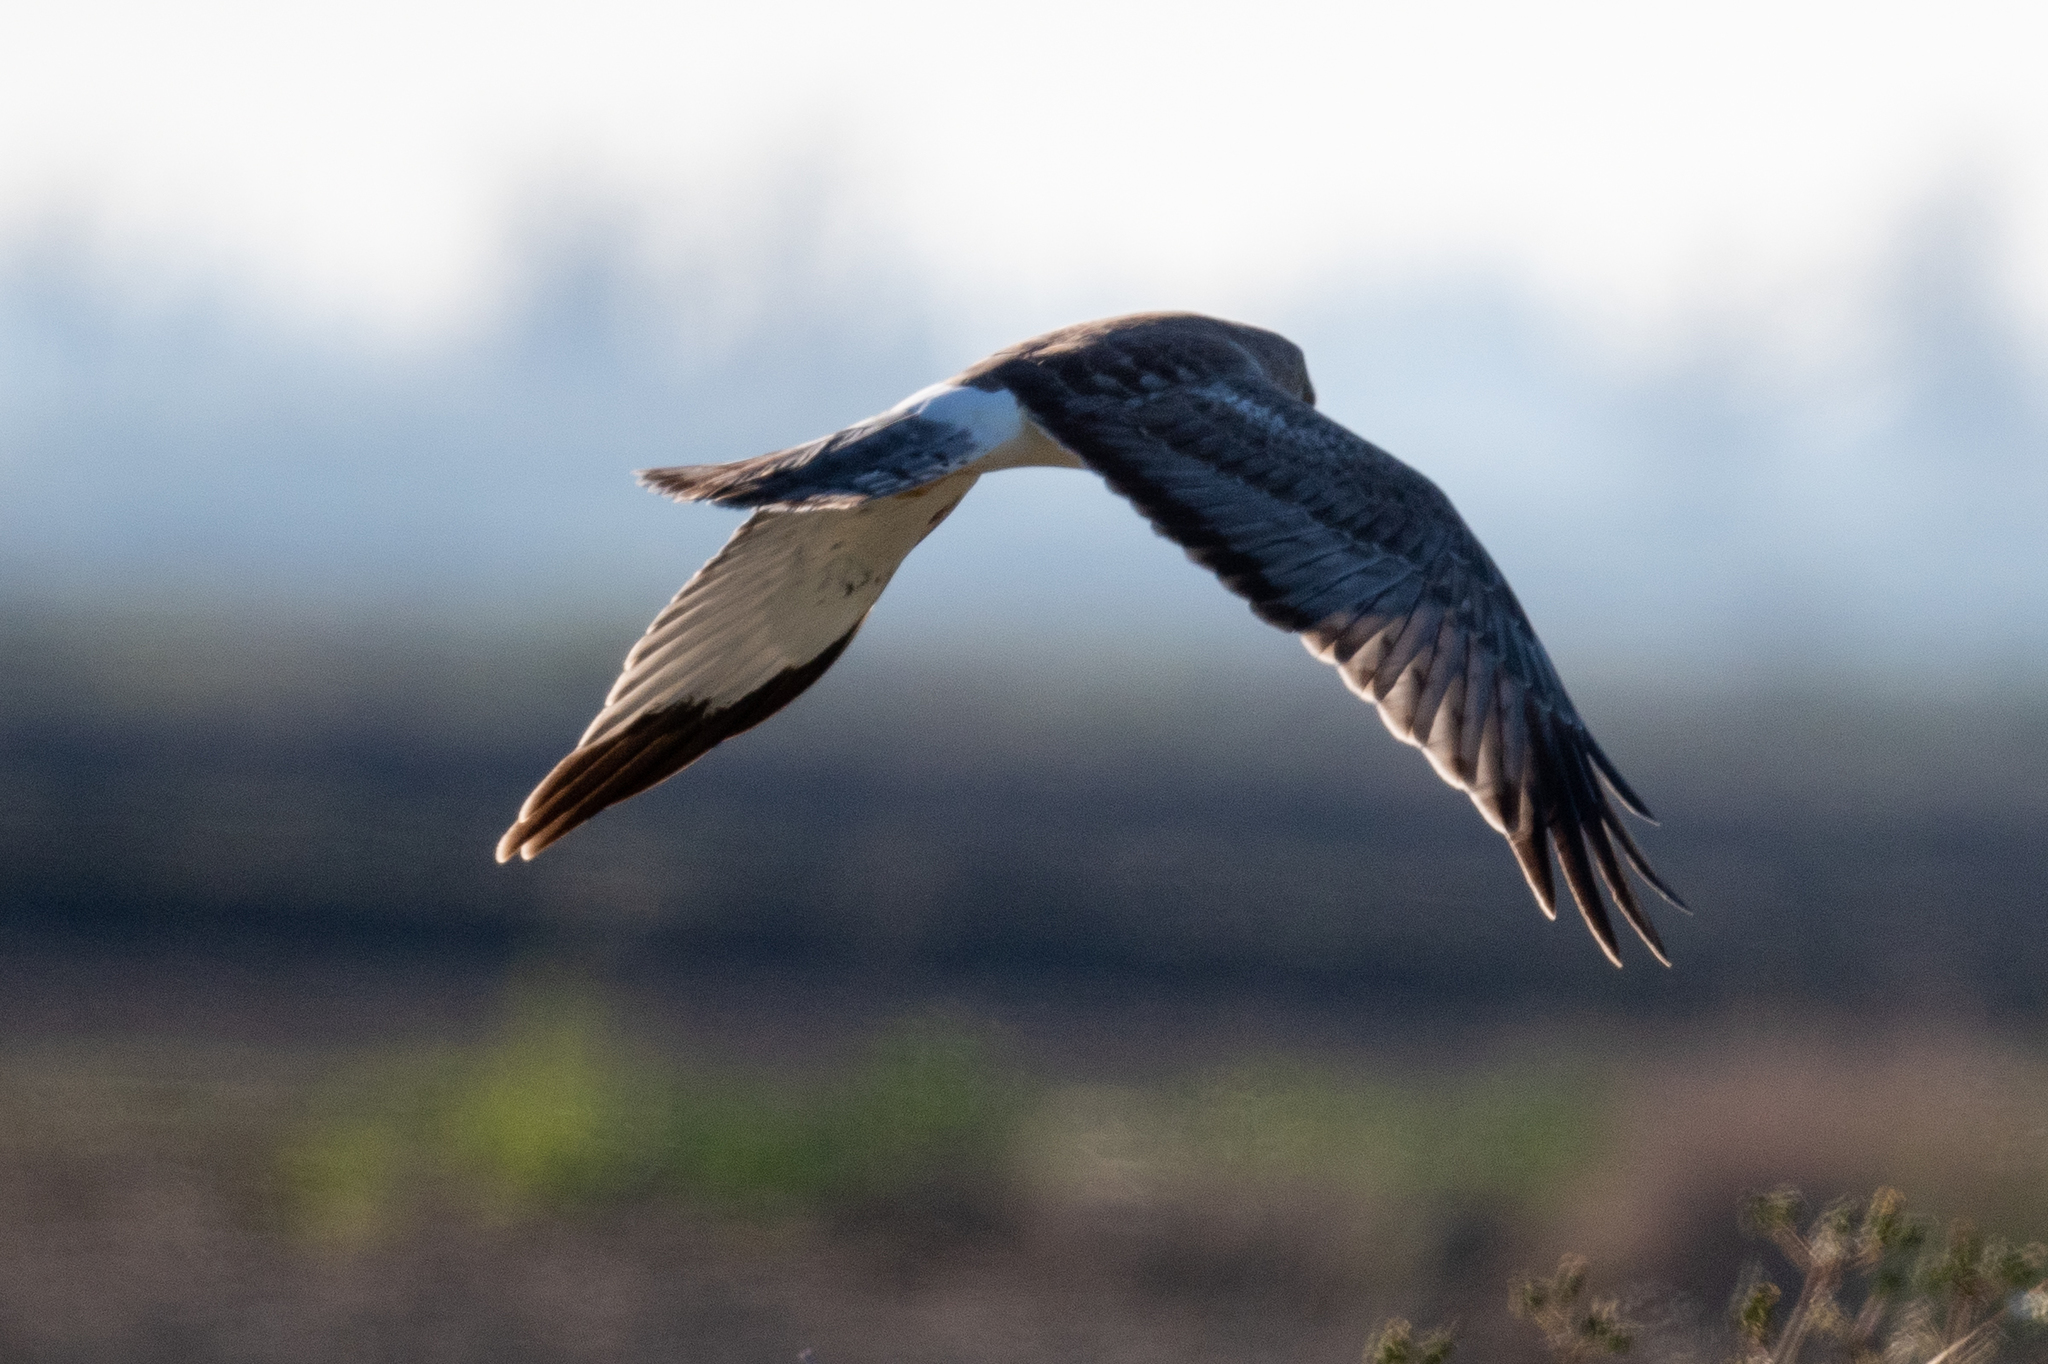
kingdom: Animalia
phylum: Chordata
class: Aves
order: Accipitriformes
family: Accipitridae
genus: Circus
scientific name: Circus cyaneus
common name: Hen harrier
